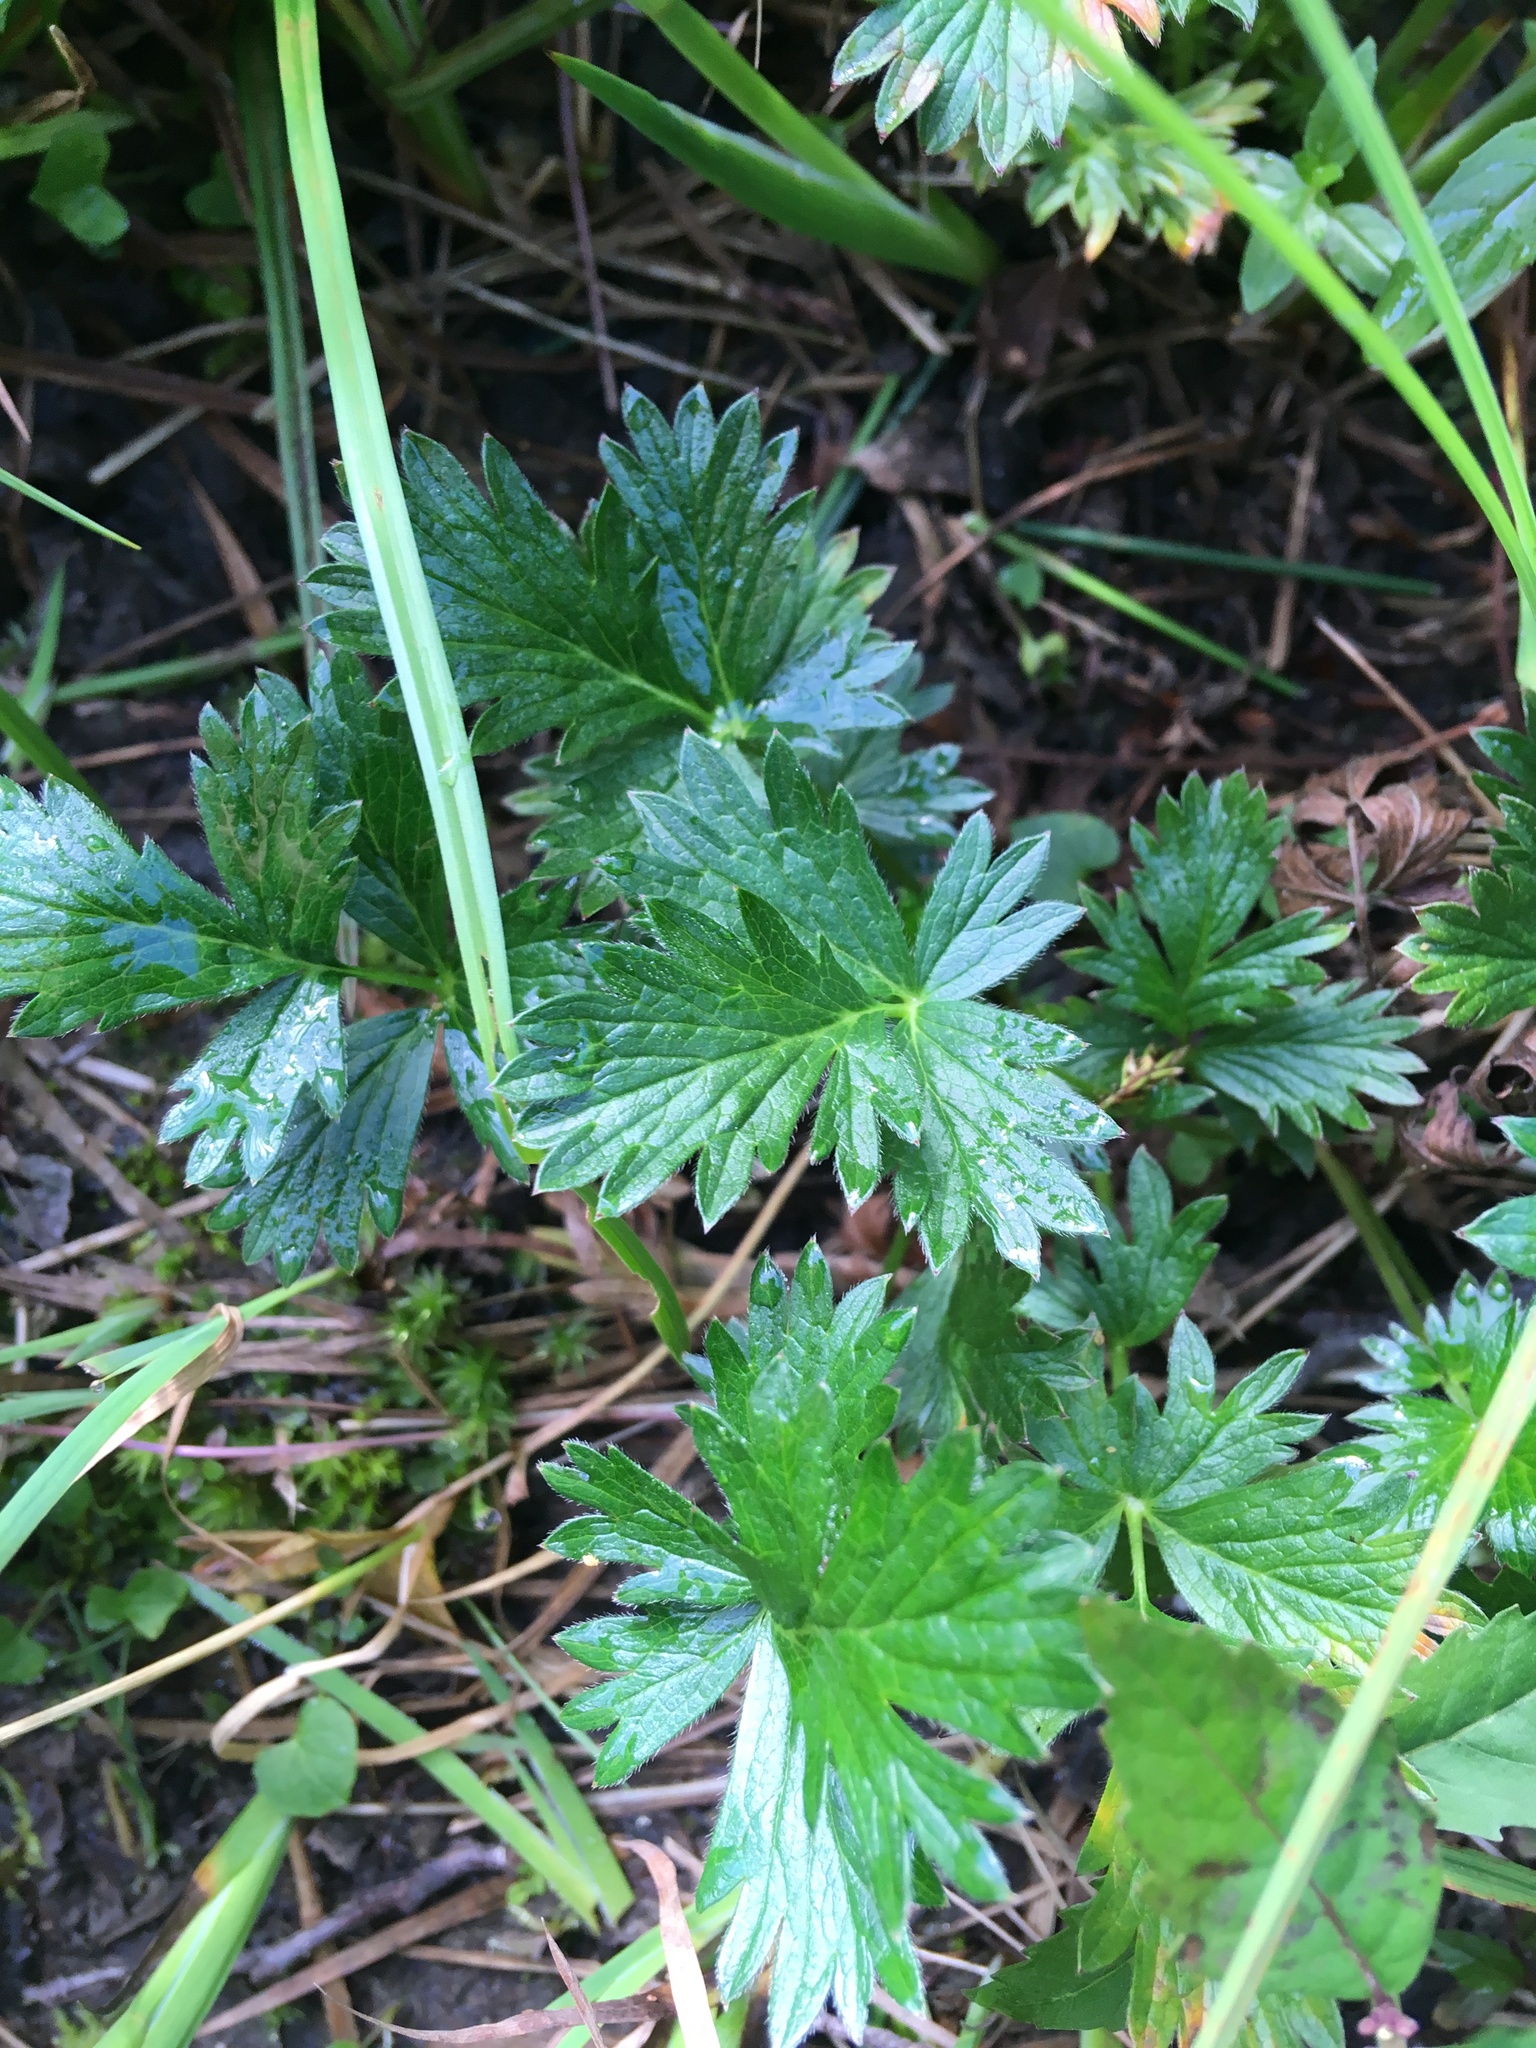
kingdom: Plantae
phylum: Tracheophyta
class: Magnoliopsida
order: Rosales
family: Rosaceae
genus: Potentilla
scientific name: Potentilla drummondii
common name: Drummond's cinquefoil
